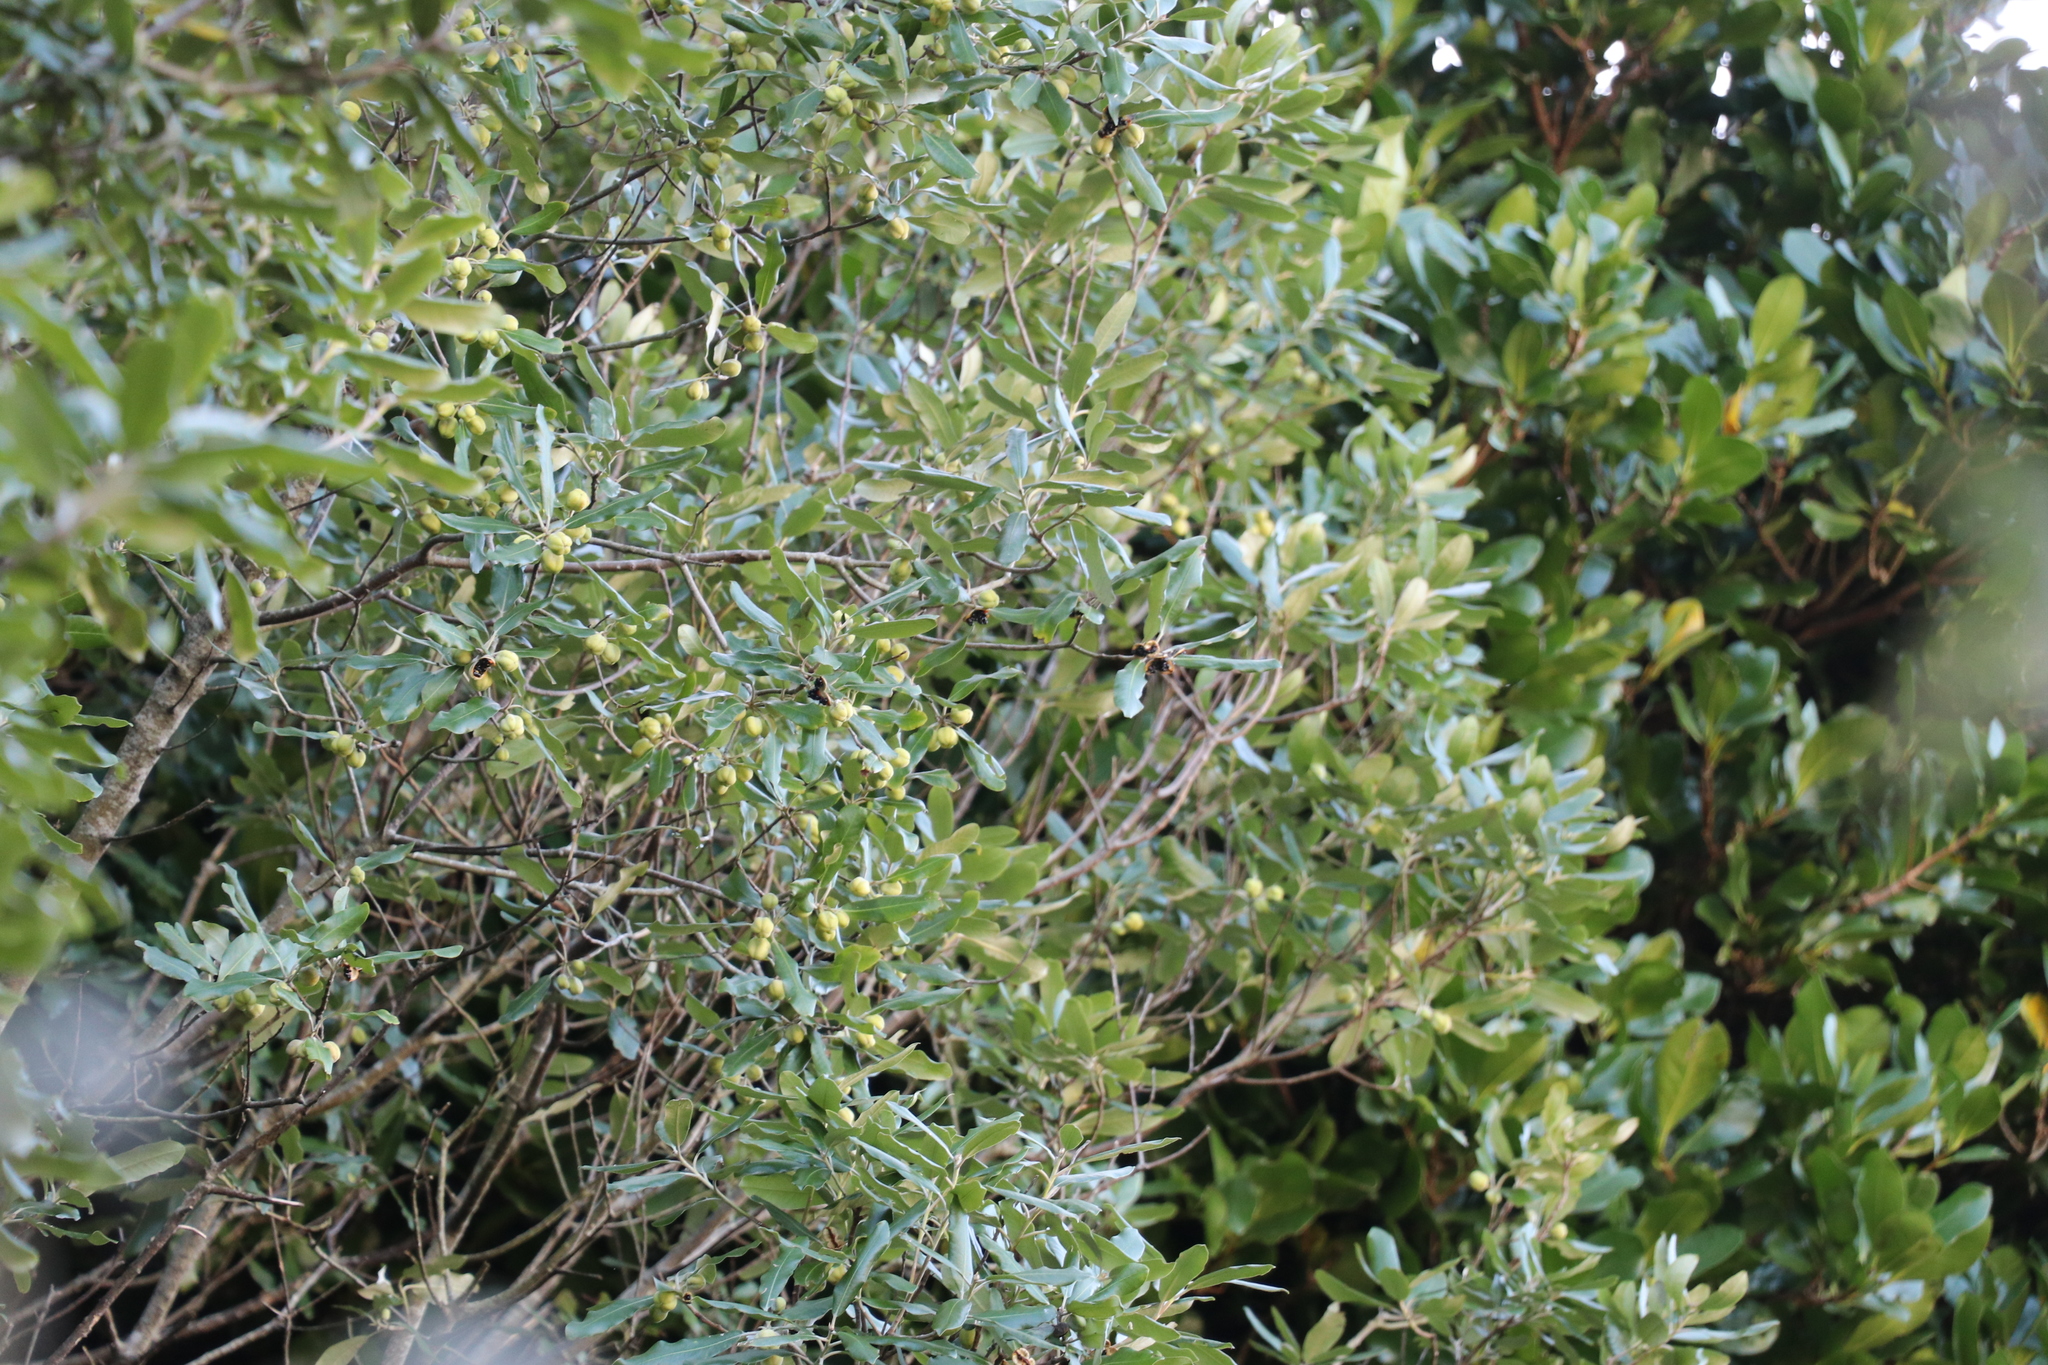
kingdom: Plantae
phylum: Tracheophyta
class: Magnoliopsida
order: Apiales
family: Pittosporaceae
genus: Pittosporum
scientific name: Pittosporum crassifolium
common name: Karo
